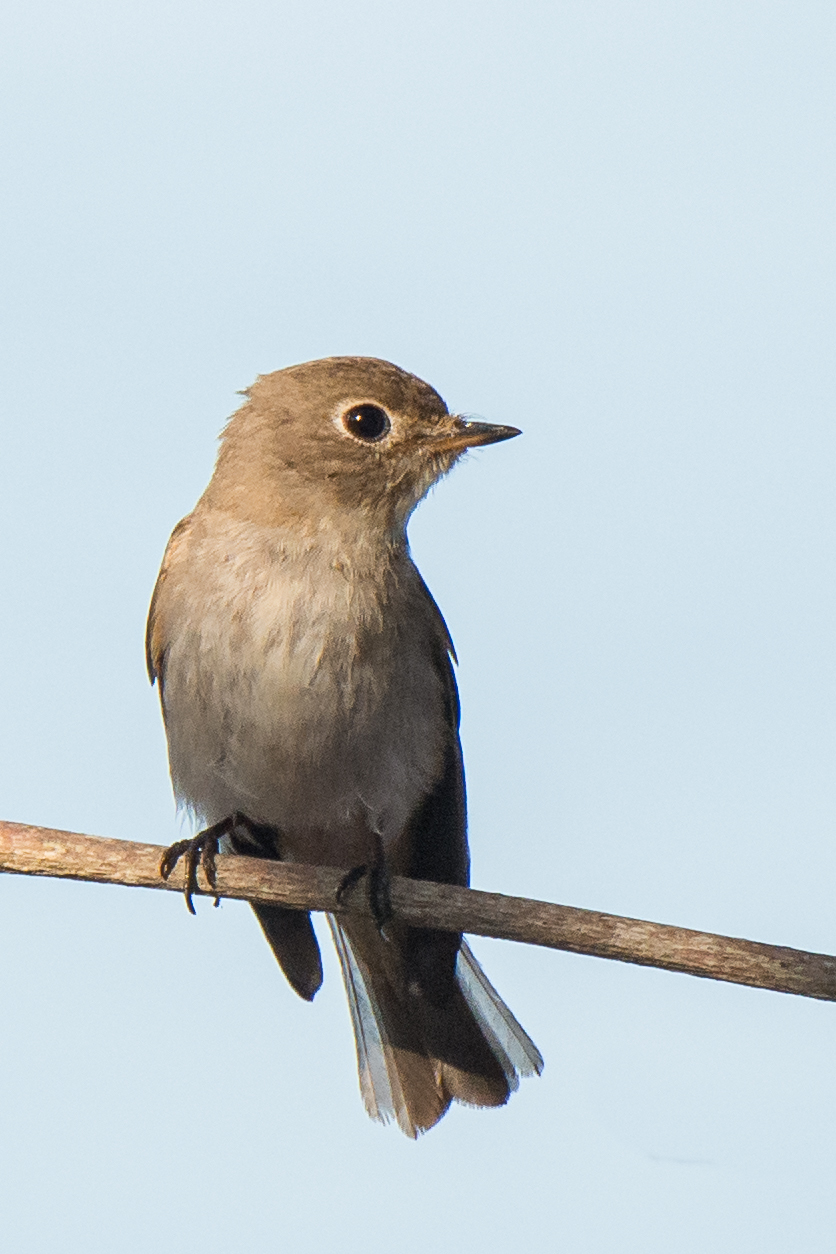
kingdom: Animalia
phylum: Chordata
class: Aves
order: Passeriformes
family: Muscicapidae
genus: Muscicapa
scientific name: Muscicapa latirostris
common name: Asian brown flycatcher
